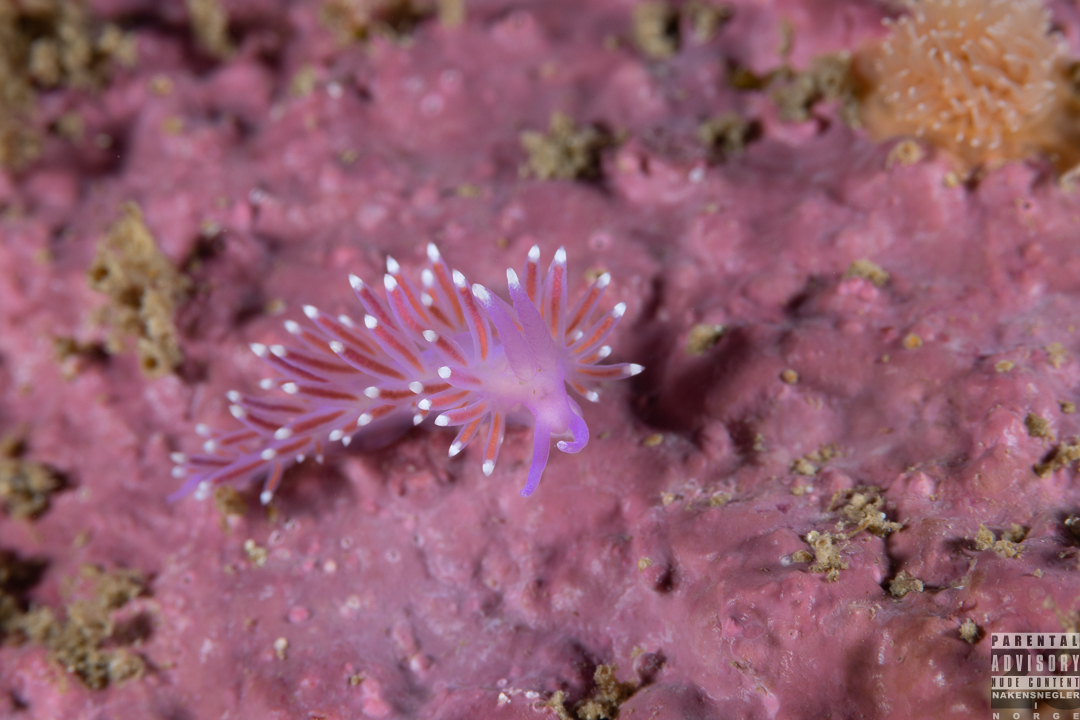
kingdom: Animalia
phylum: Mollusca
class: Gastropoda
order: Nudibranchia
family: Flabellinidae
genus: Edmundsella
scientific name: Edmundsella pedata
